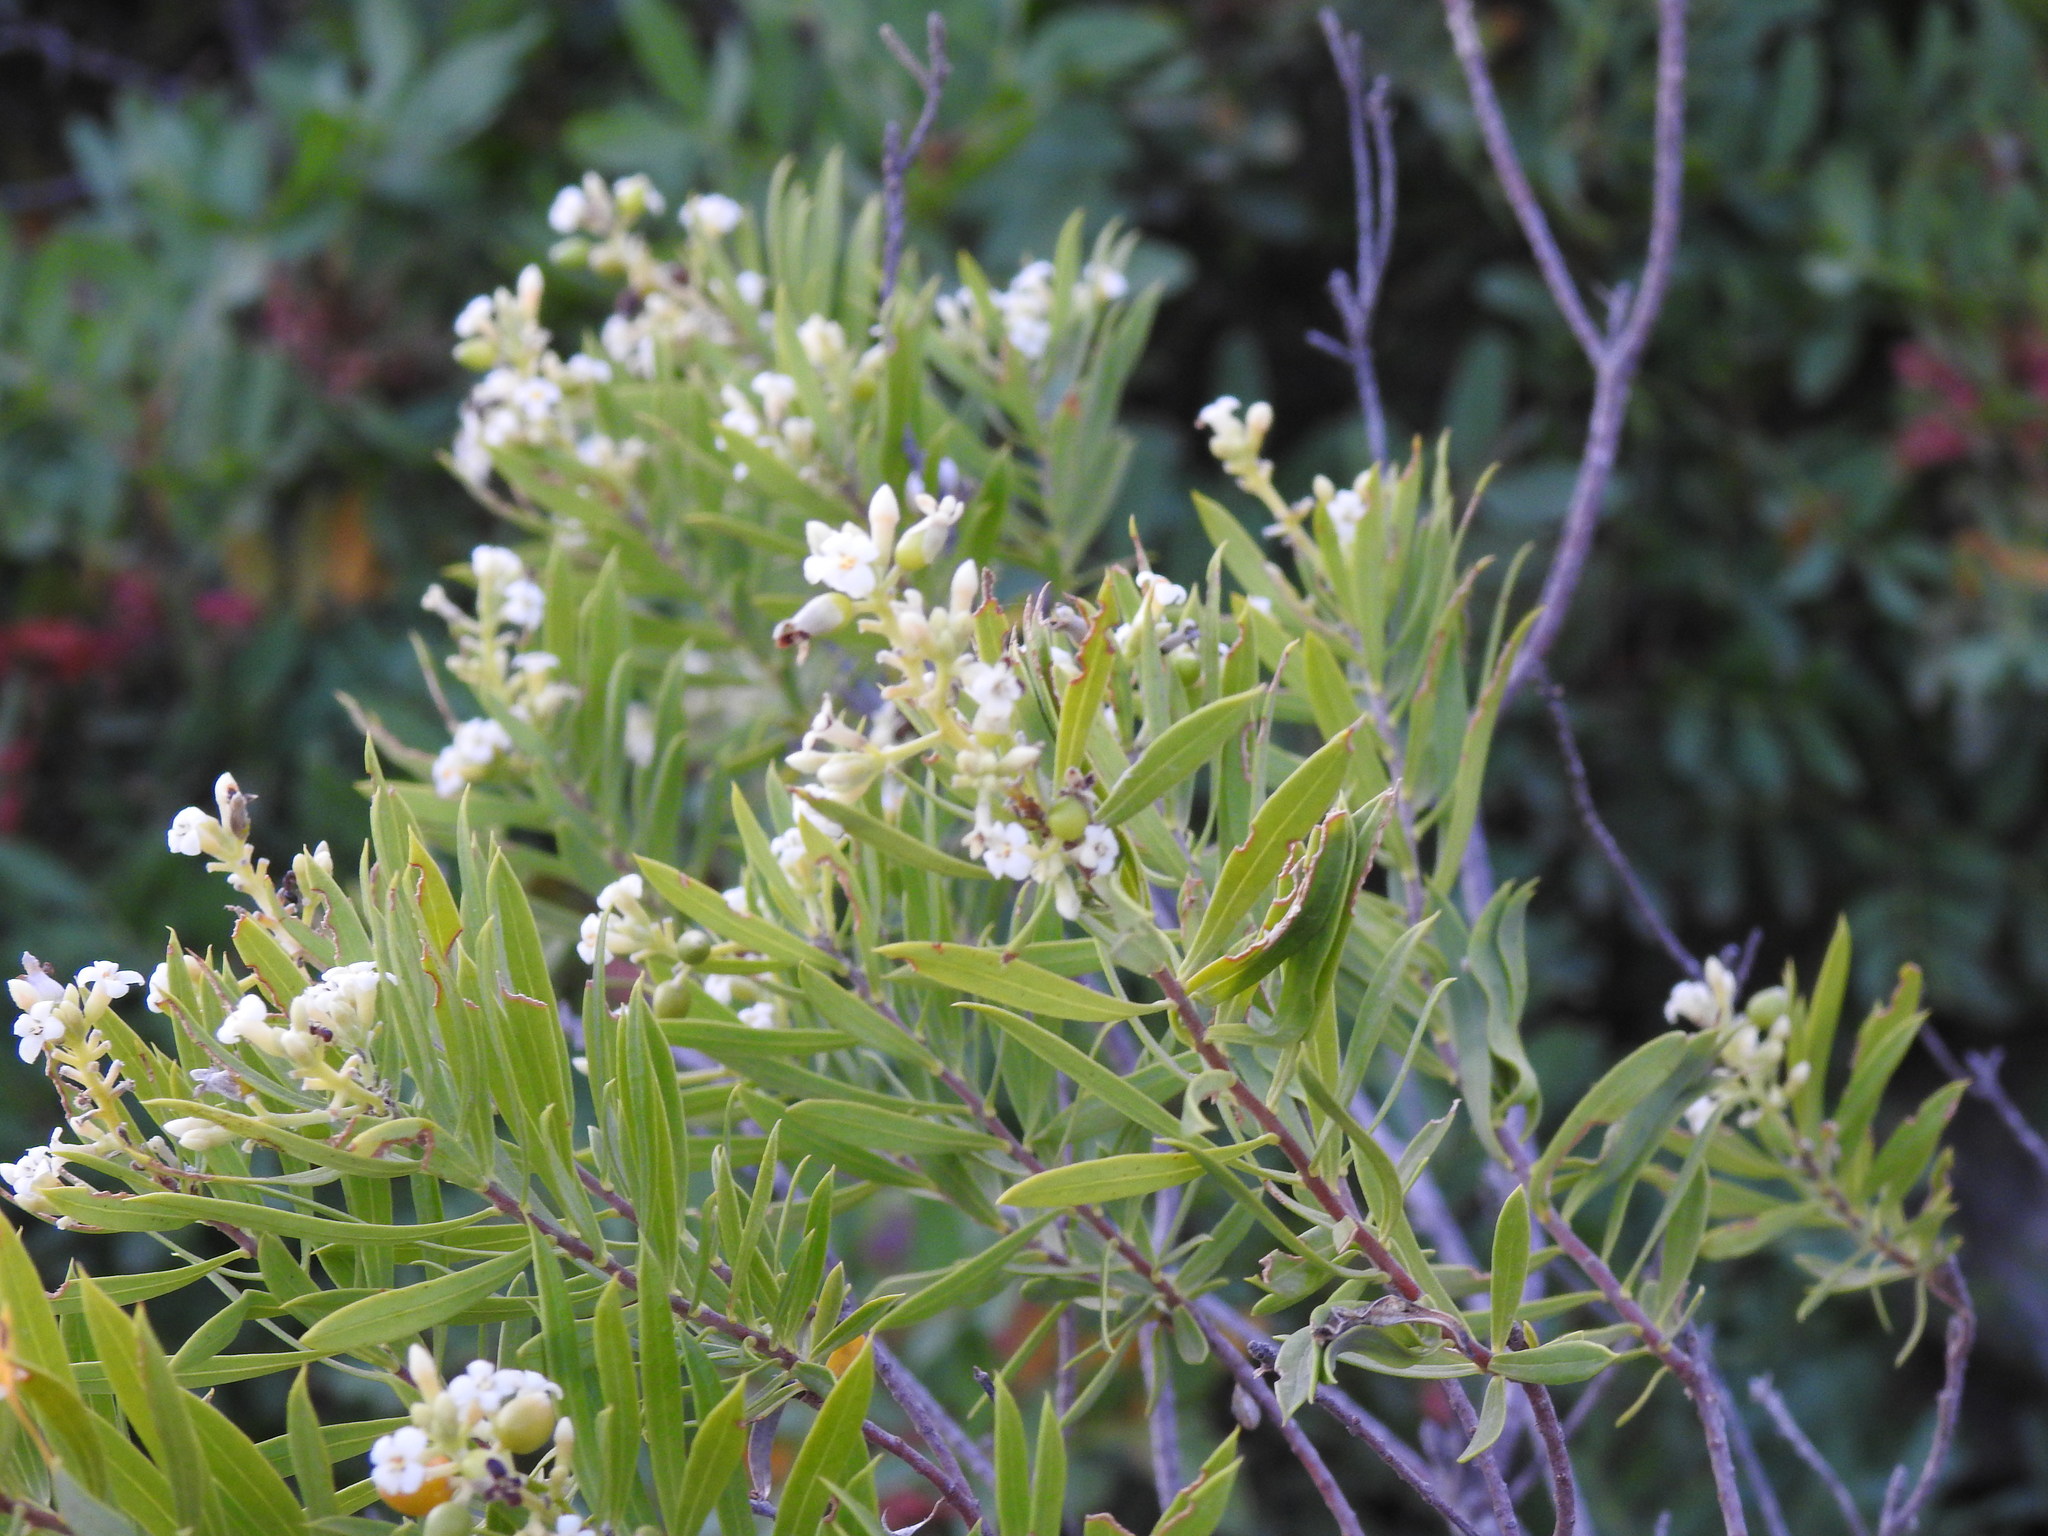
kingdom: Plantae
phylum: Tracheophyta
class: Magnoliopsida
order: Malvales
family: Thymelaeaceae
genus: Daphne
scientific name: Daphne gnidium
